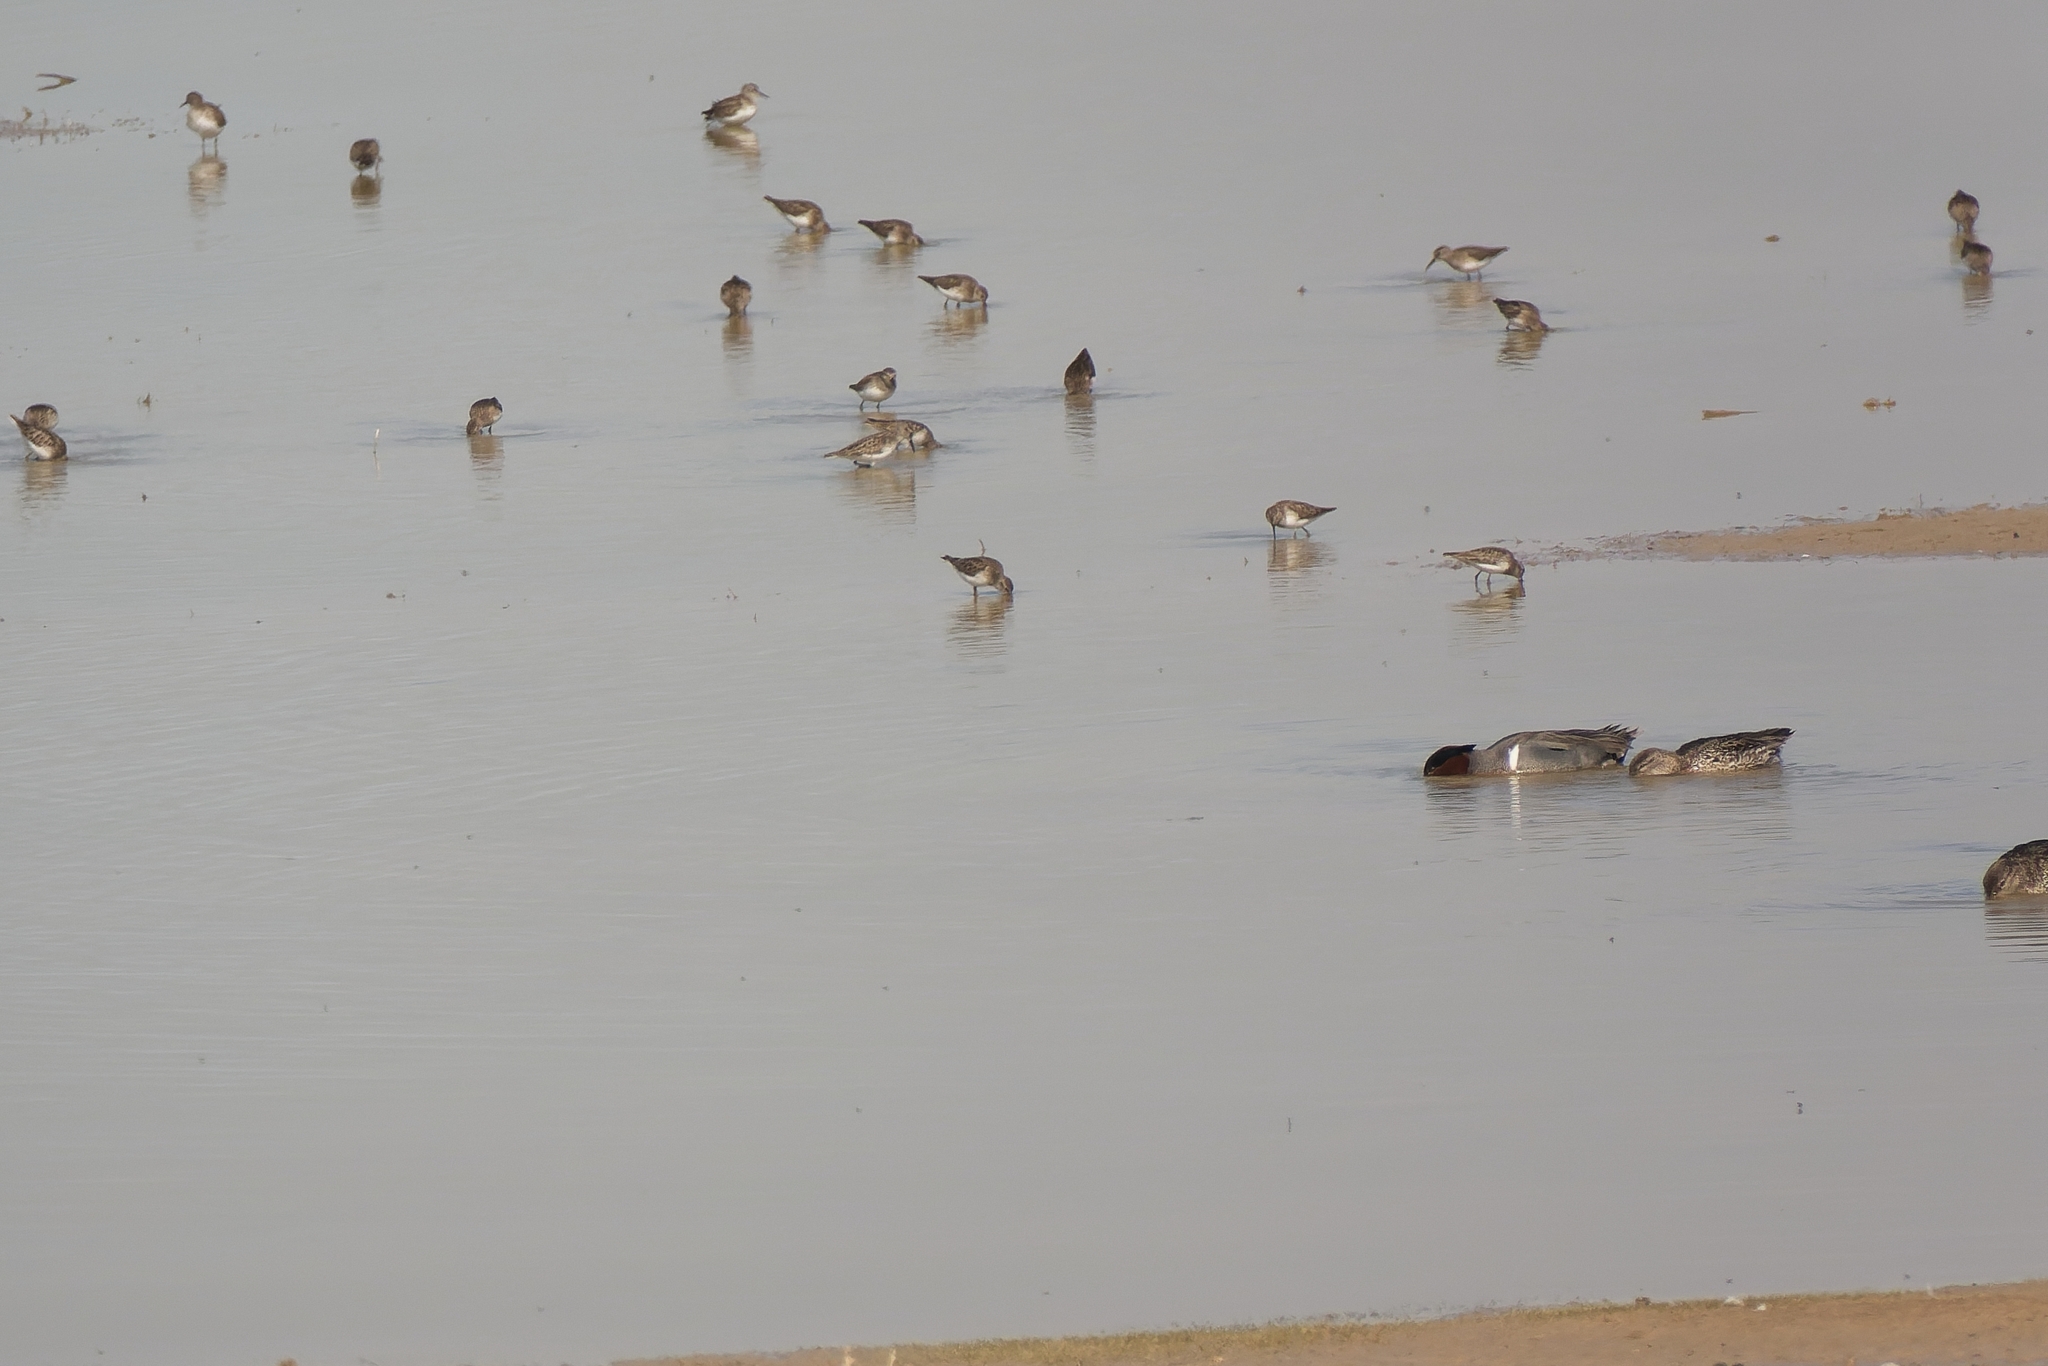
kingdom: Animalia
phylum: Chordata
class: Aves
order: Anseriformes
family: Anatidae
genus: Anas
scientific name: Anas crecca
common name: Eurasian teal
